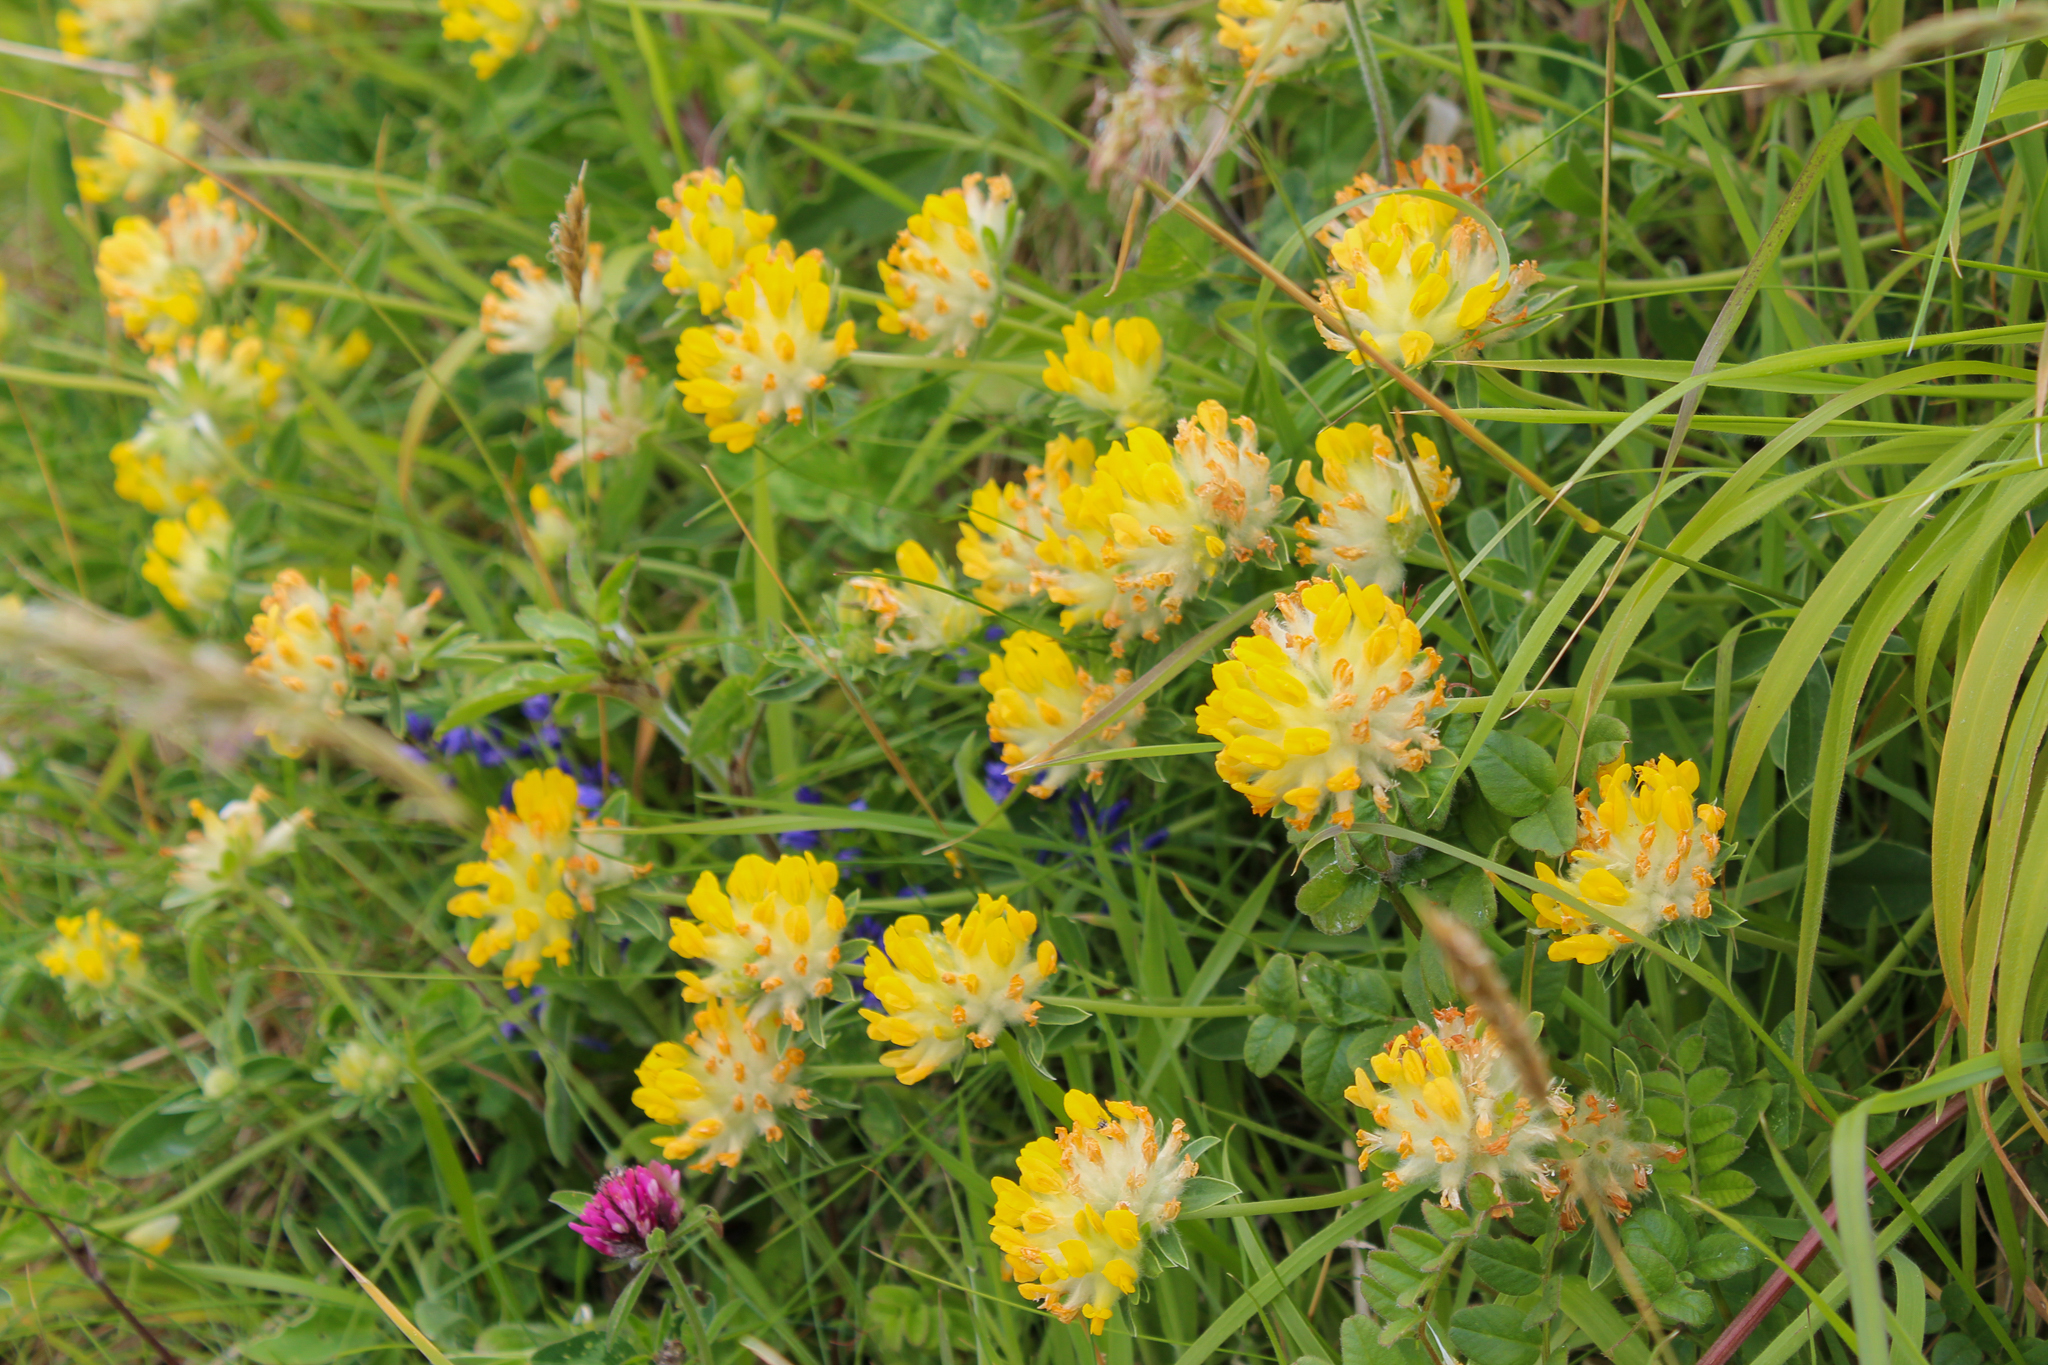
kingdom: Plantae
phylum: Tracheophyta
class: Magnoliopsida
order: Fabales
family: Fabaceae
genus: Anthyllis
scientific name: Anthyllis vulneraria
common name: Kidney vetch
